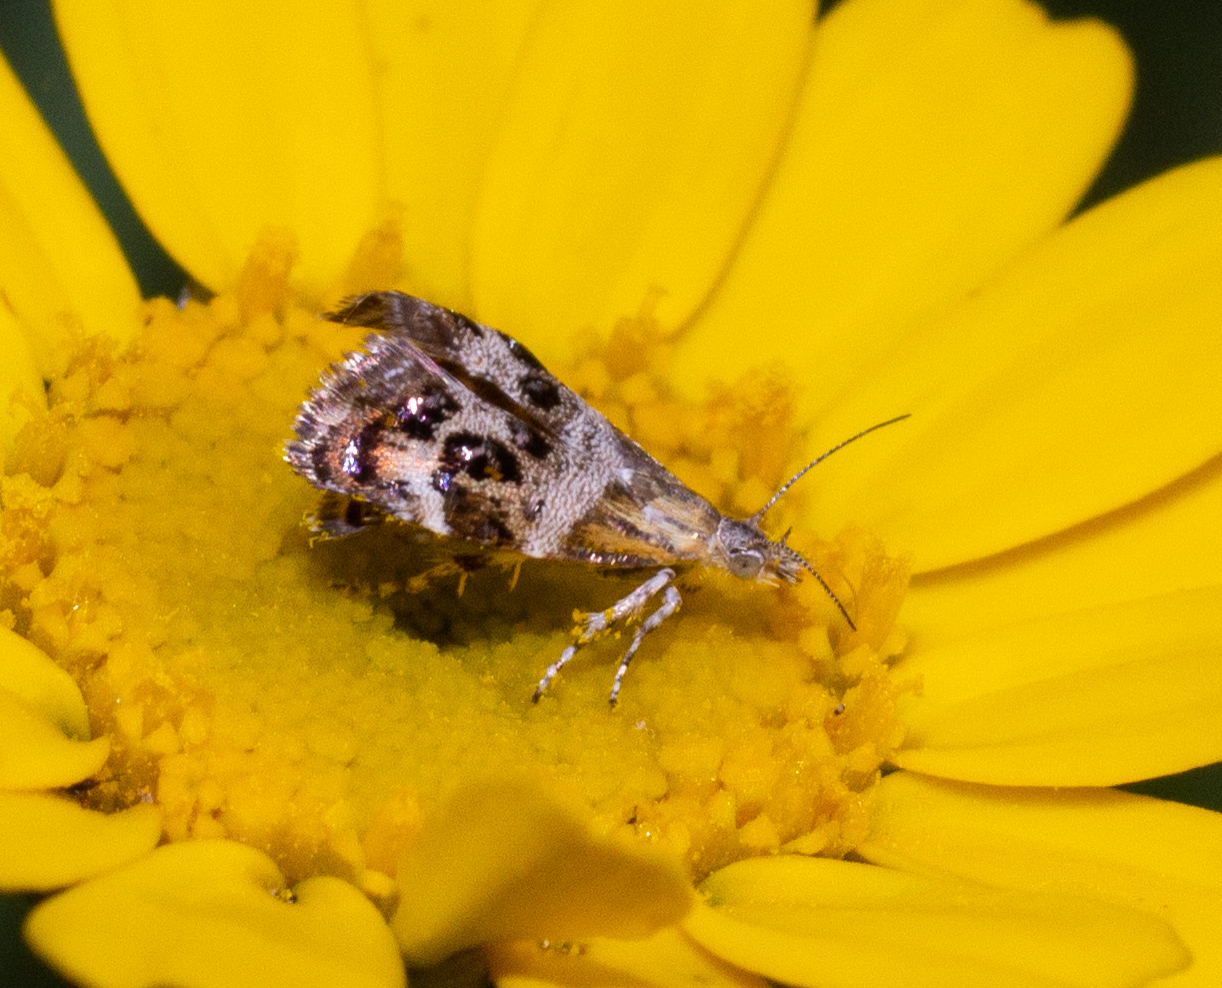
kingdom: Animalia
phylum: Arthropoda
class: Insecta
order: Lepidoptera
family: Choreutidae
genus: Tebenna
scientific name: Tebenna micalis
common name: Vagrant twitcher
